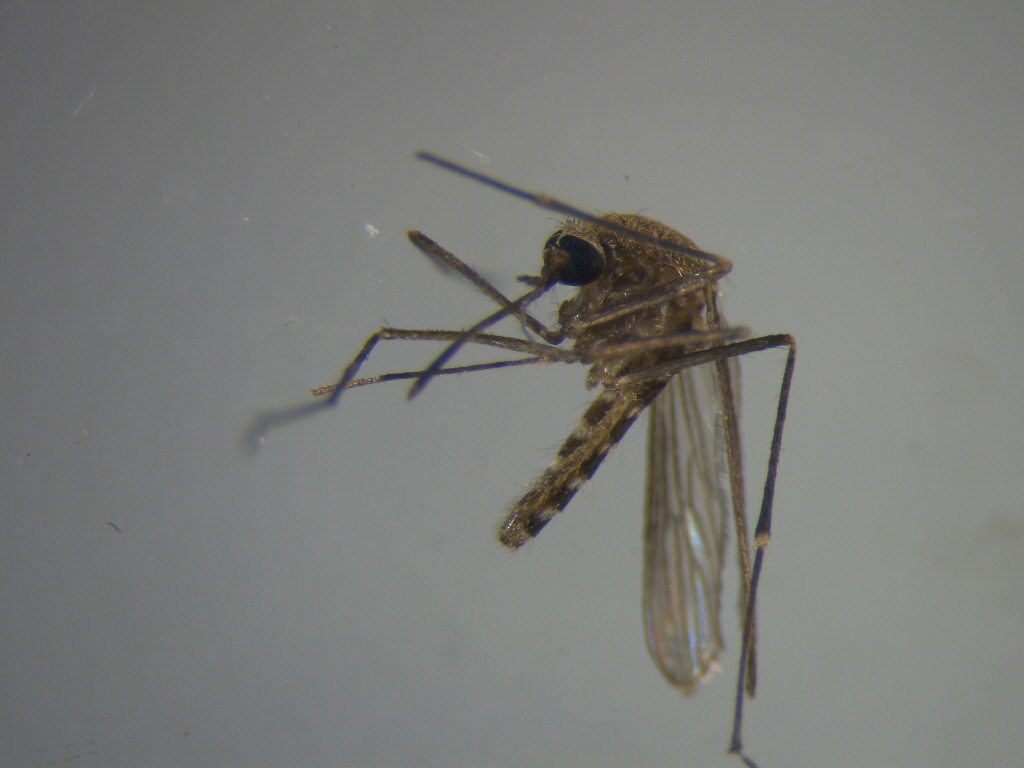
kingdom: Animalia
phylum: Arthropoda
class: Insecta
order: Diptera
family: Culicidae
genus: Culex
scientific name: Culex quinquefasciatus
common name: Southern house mosquito
